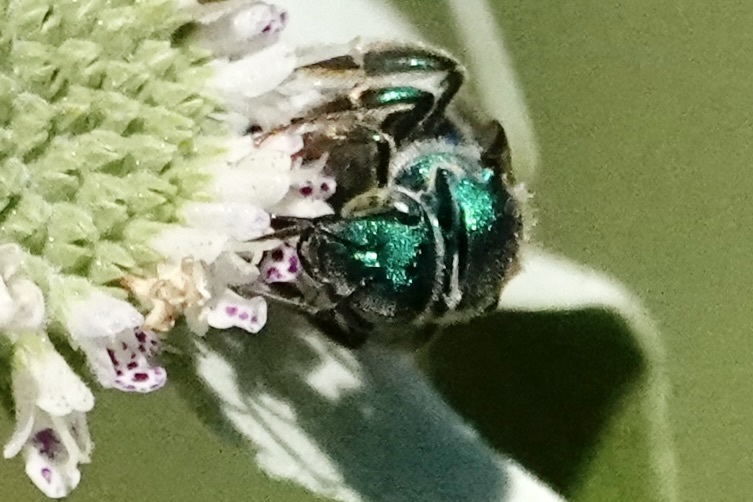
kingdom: Animalia
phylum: Arthropoda
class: Insecta
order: Hymenoptera
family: Halictidae
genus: Augochloropsis
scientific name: Augochloropsis metallica
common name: Green metallic sweat bee
